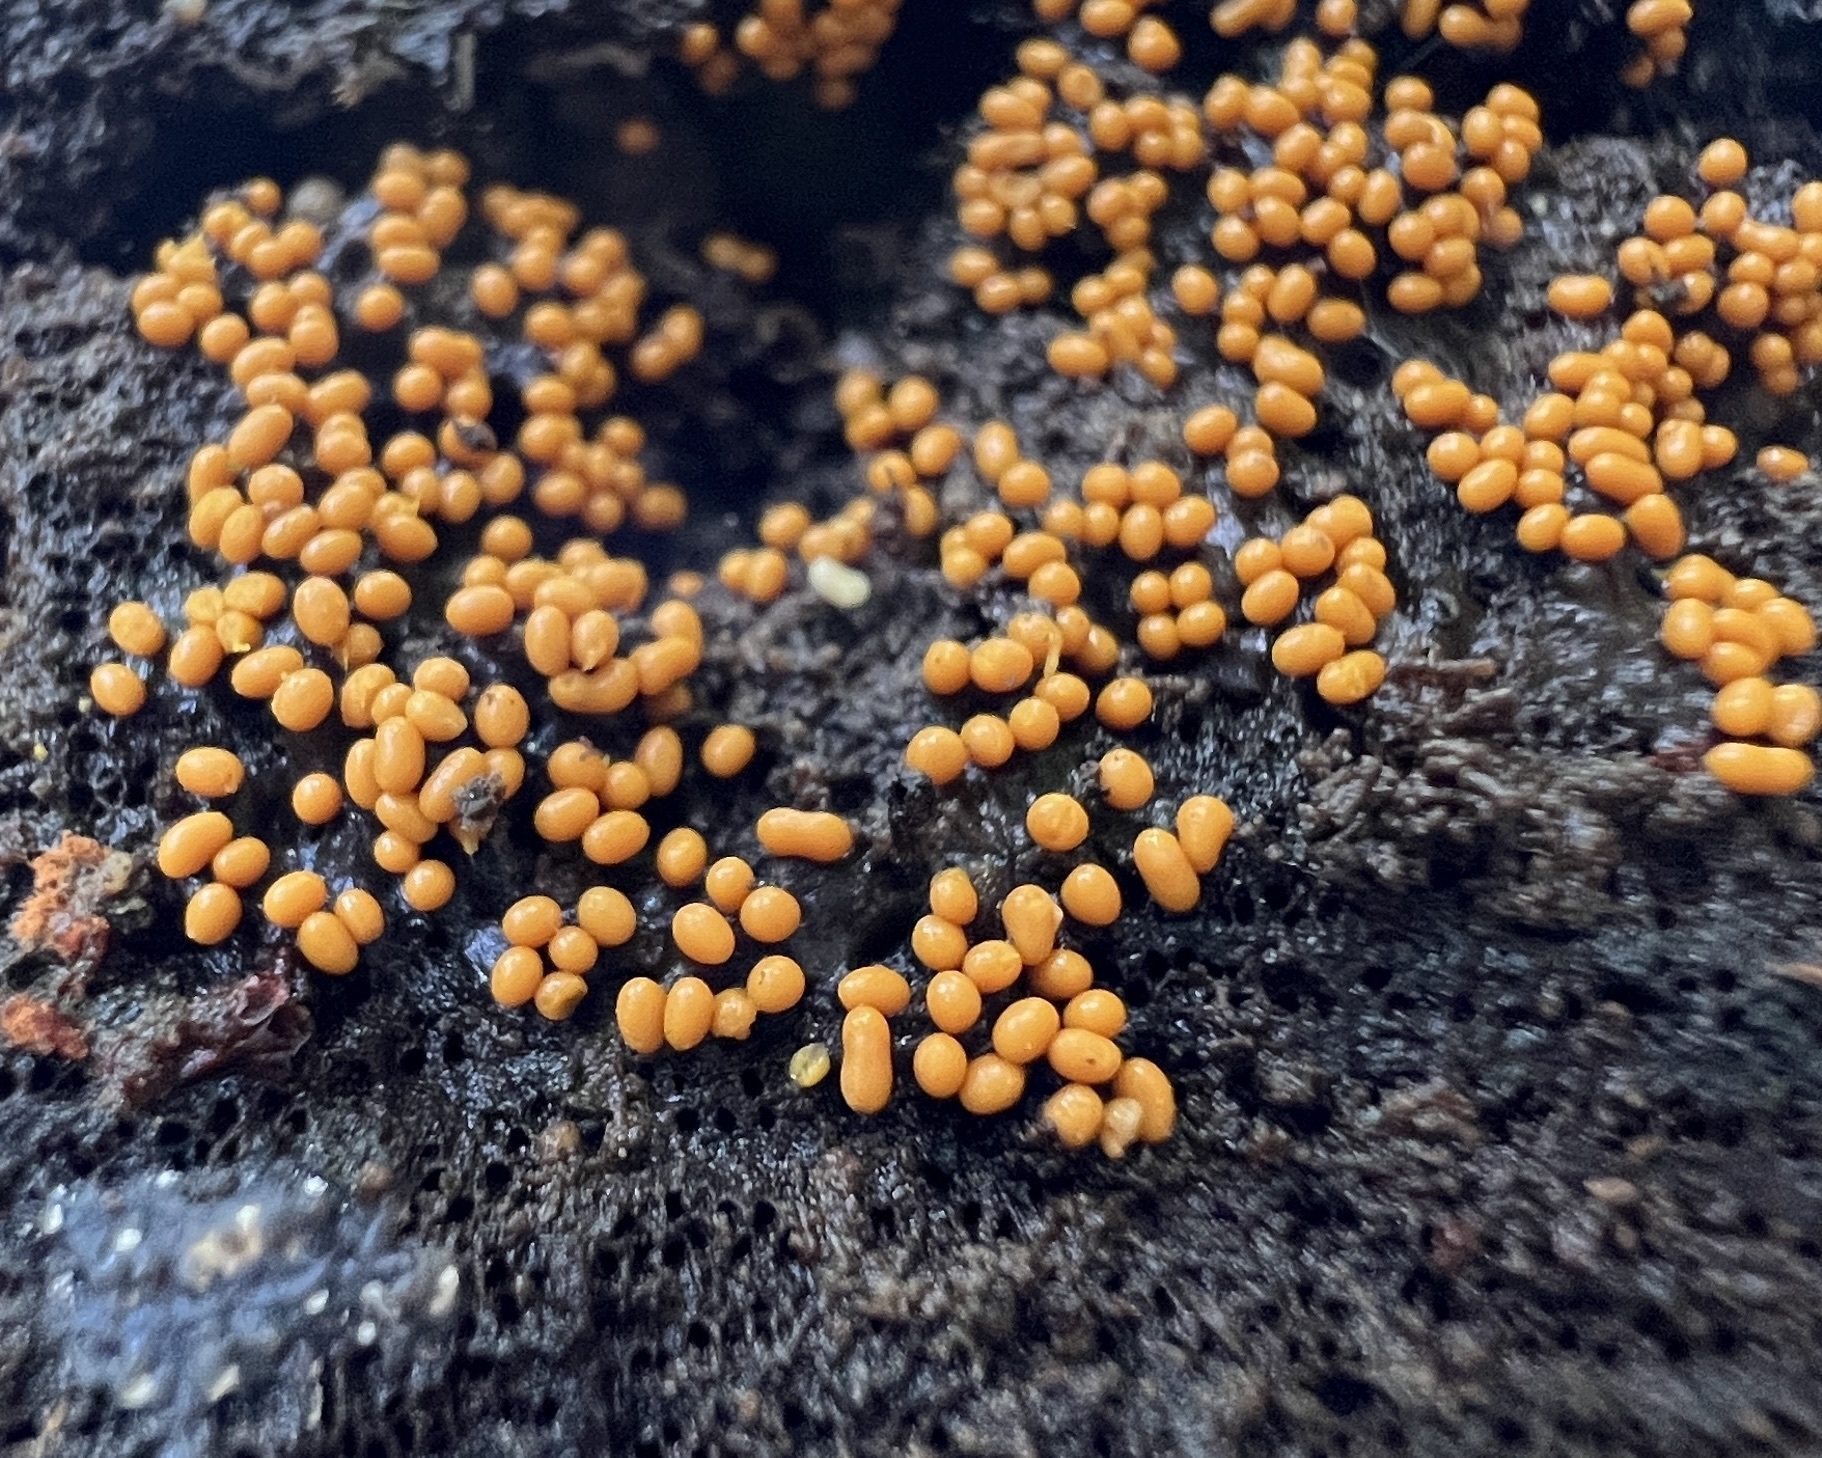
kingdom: Protozoa
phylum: Mycetozoa
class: Myxomycetes
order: Trichiales
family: Trichiaceae
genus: Trichia
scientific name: Trichia varia
